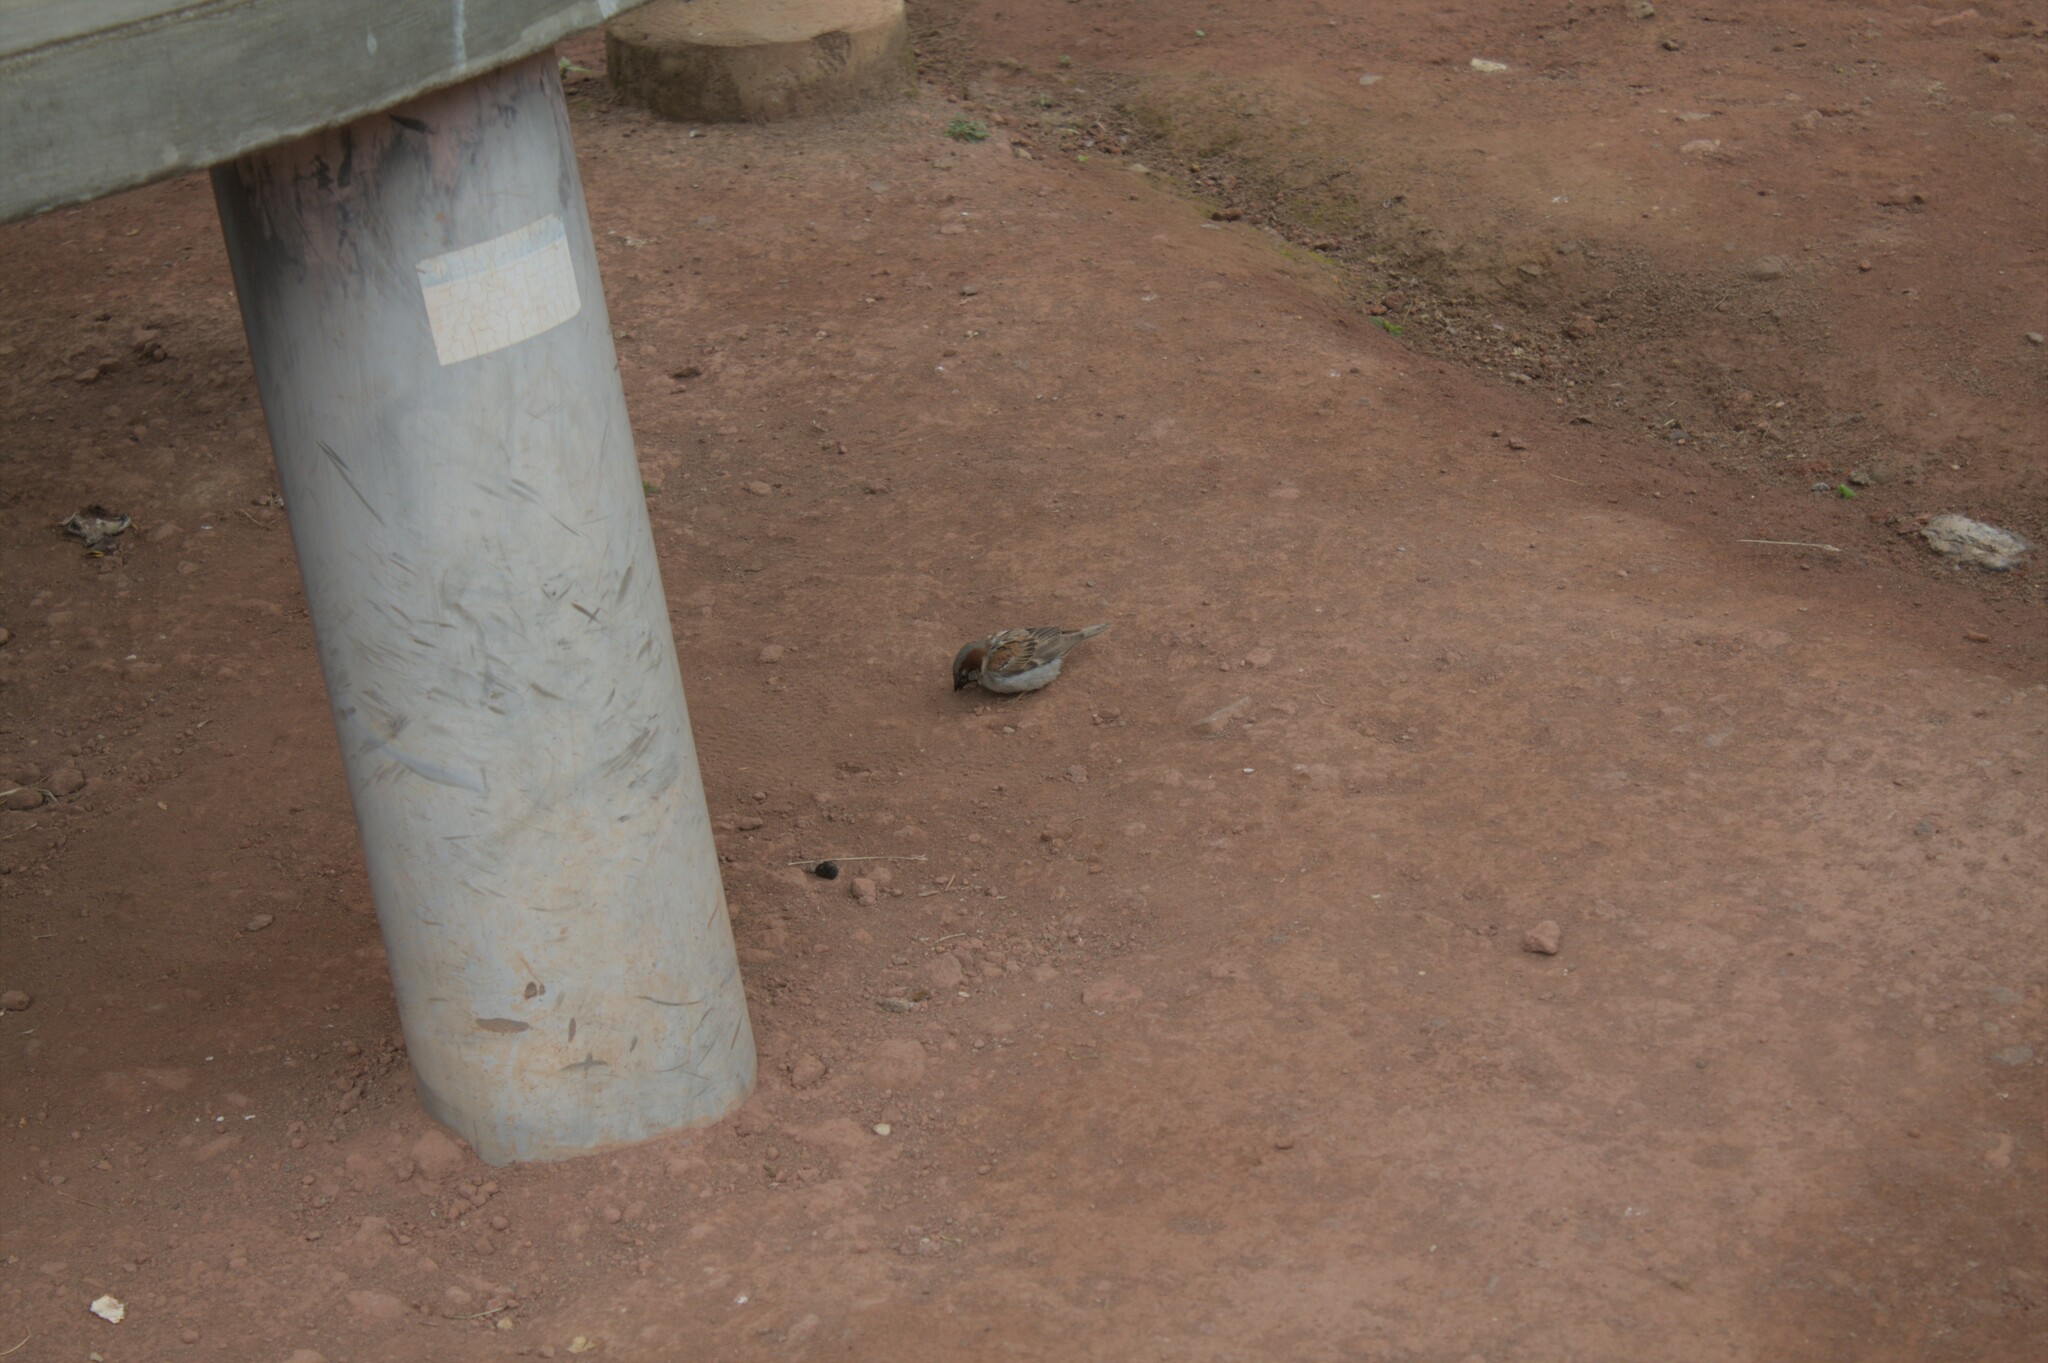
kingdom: Animalia
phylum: Chordata
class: Aves
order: Passeriformes
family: Passeridae
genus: Passer
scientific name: Passer domesticus
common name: House sparrow
